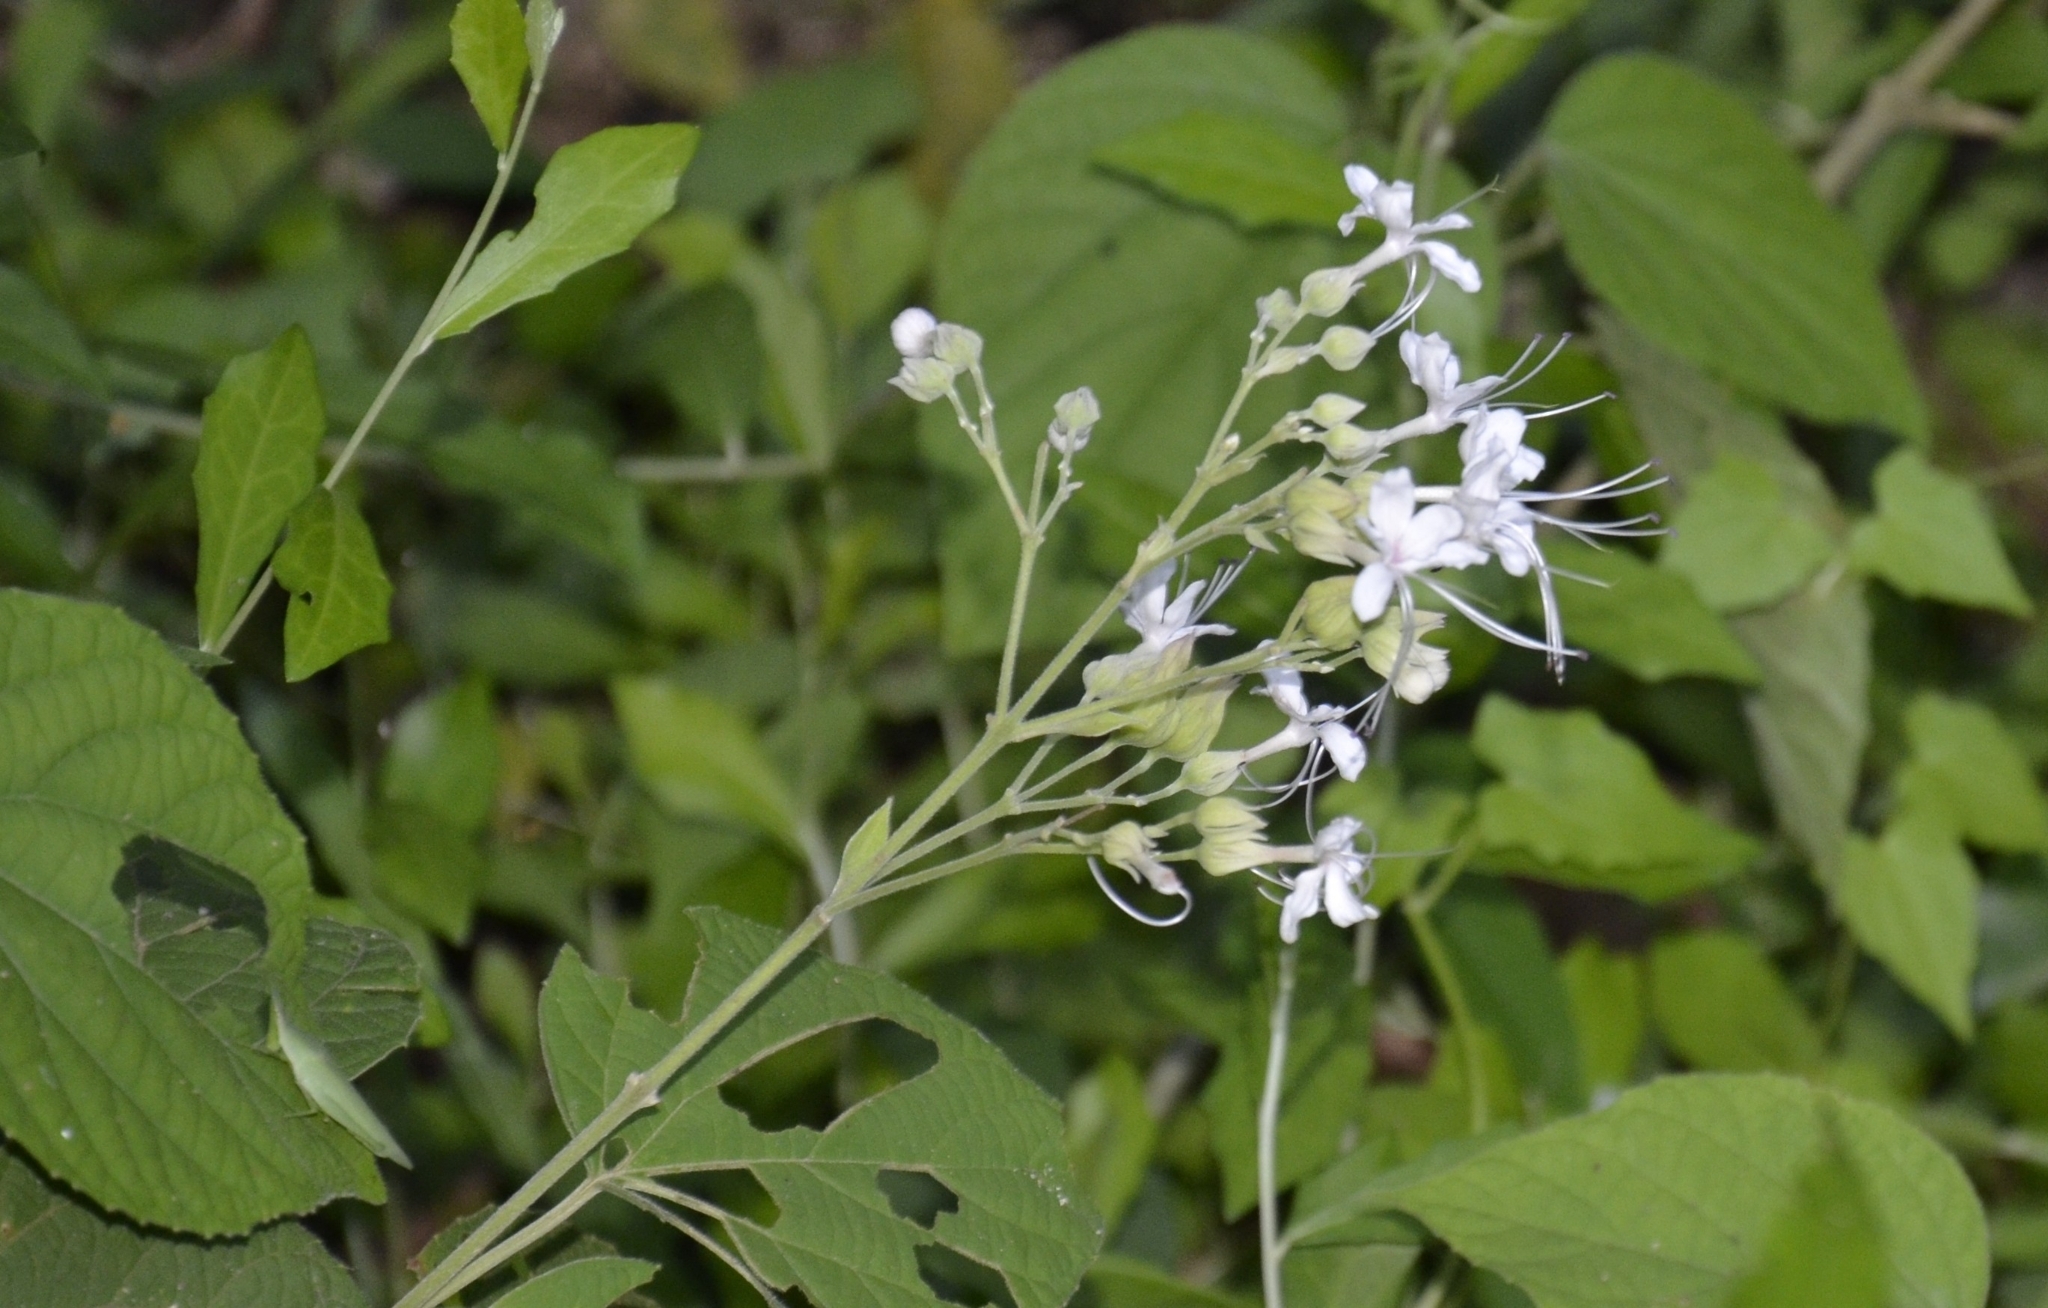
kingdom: Plantae
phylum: Tracheophyta
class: Magnoliopsida
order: Lamiales
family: Lamiaceae
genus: Clerodendrum
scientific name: Clerodendrum infortunatum
